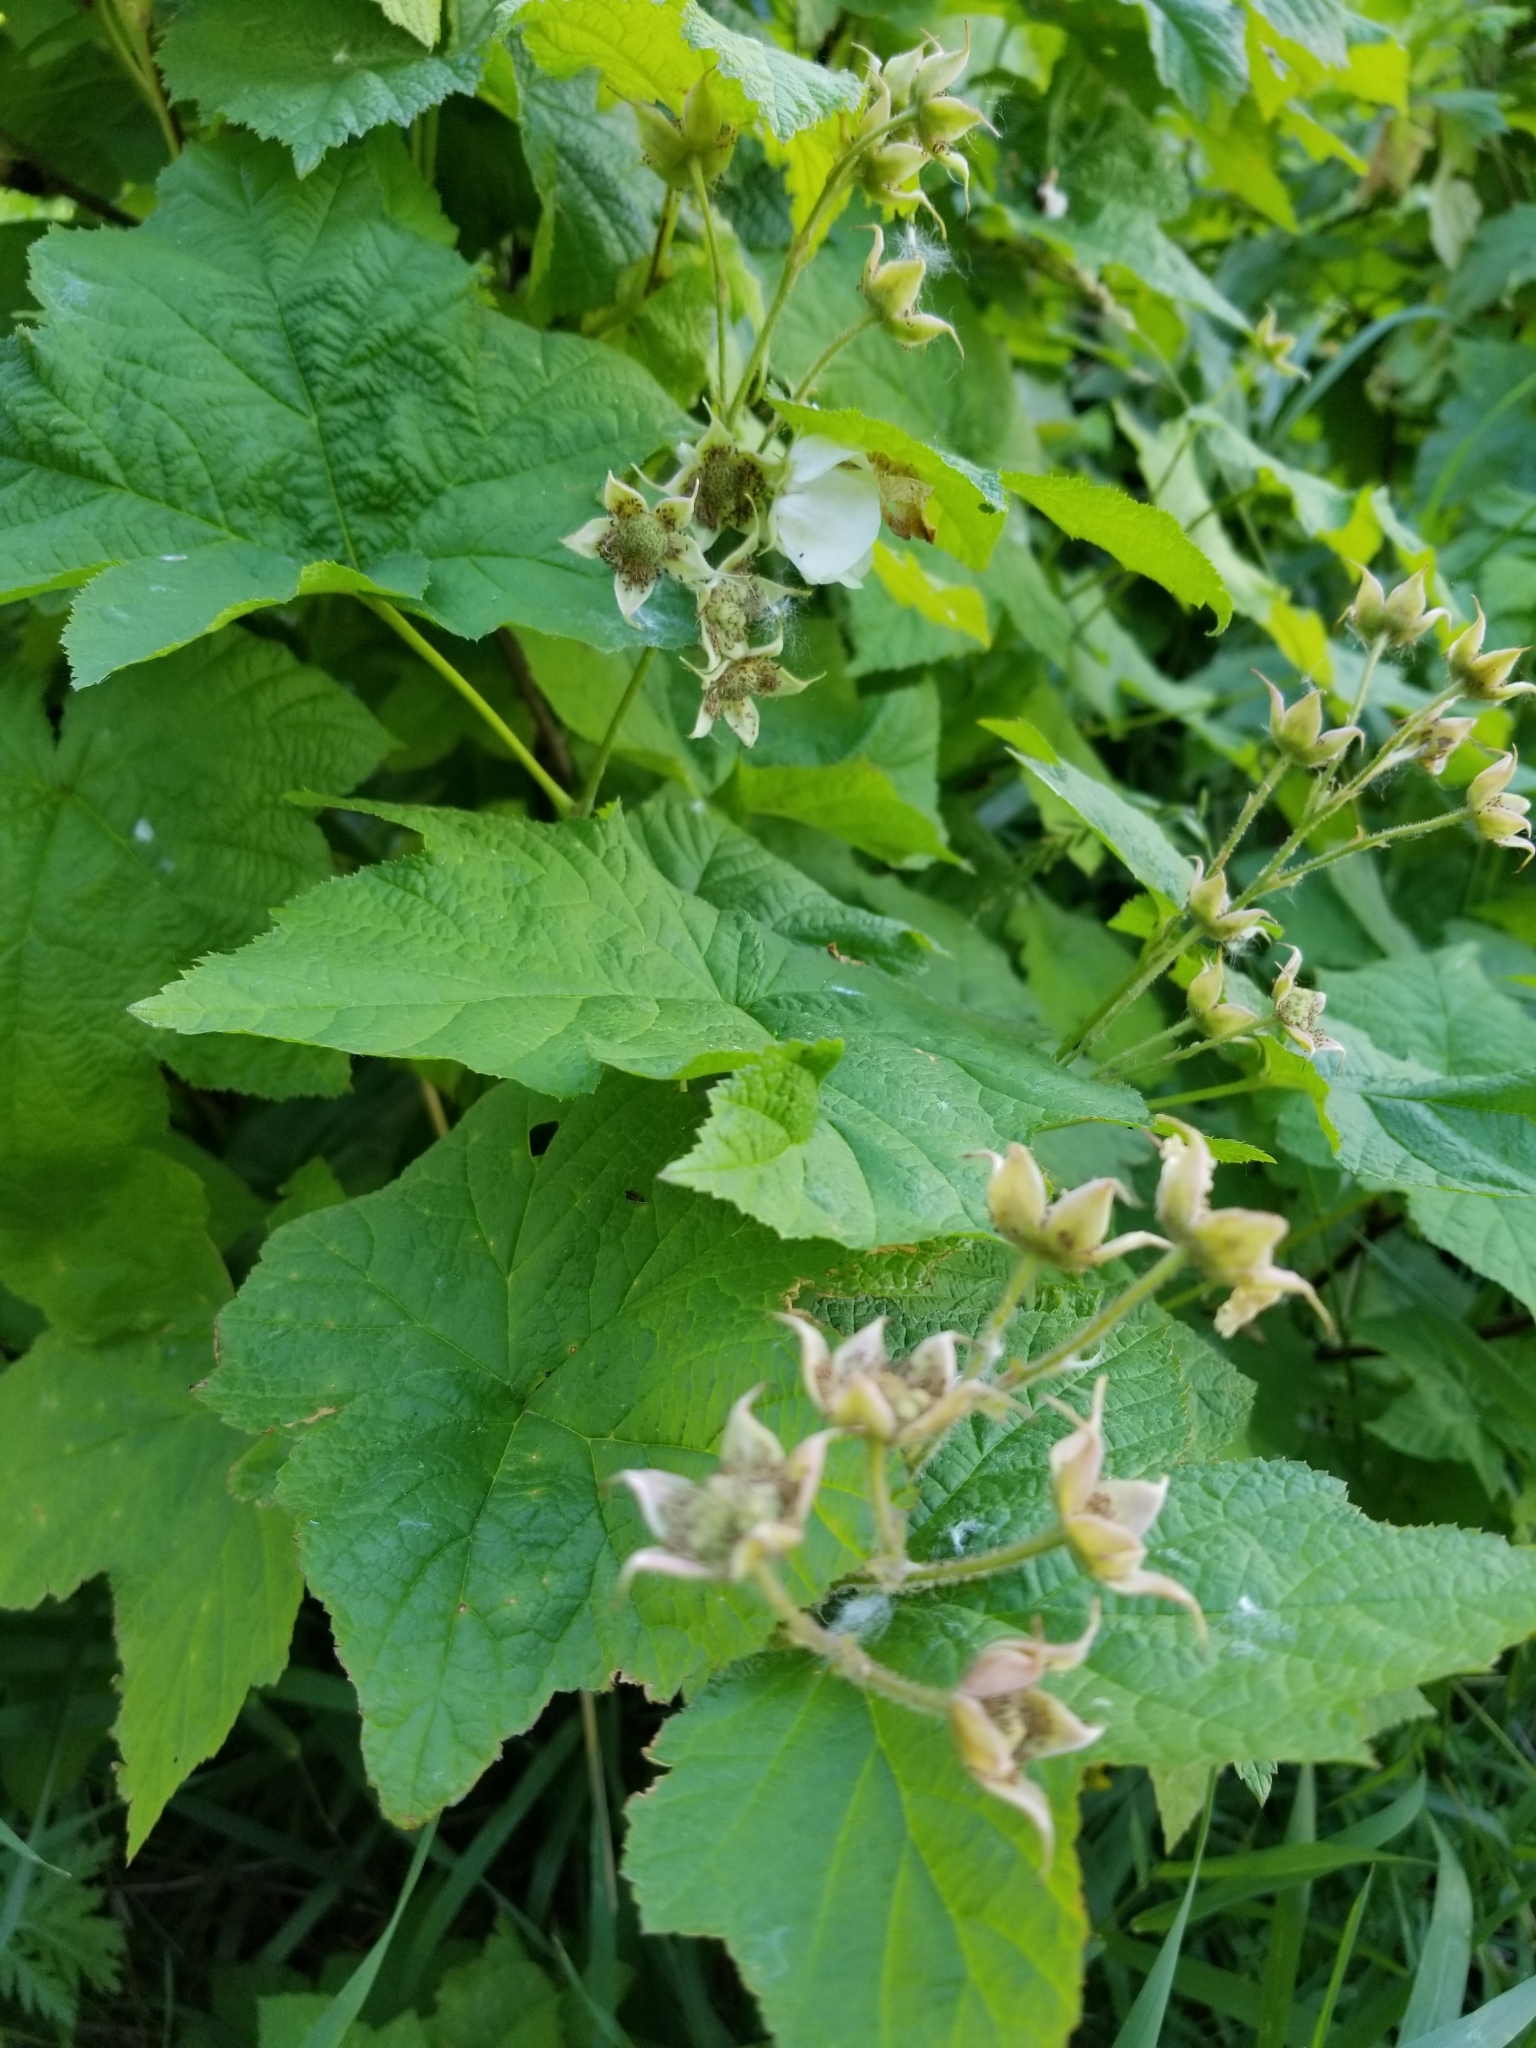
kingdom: Plantae
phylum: Tracheophyta
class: Magnoliopsida
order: Rosales
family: Rosaceae
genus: Rubus
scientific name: Rubus parviflorus
